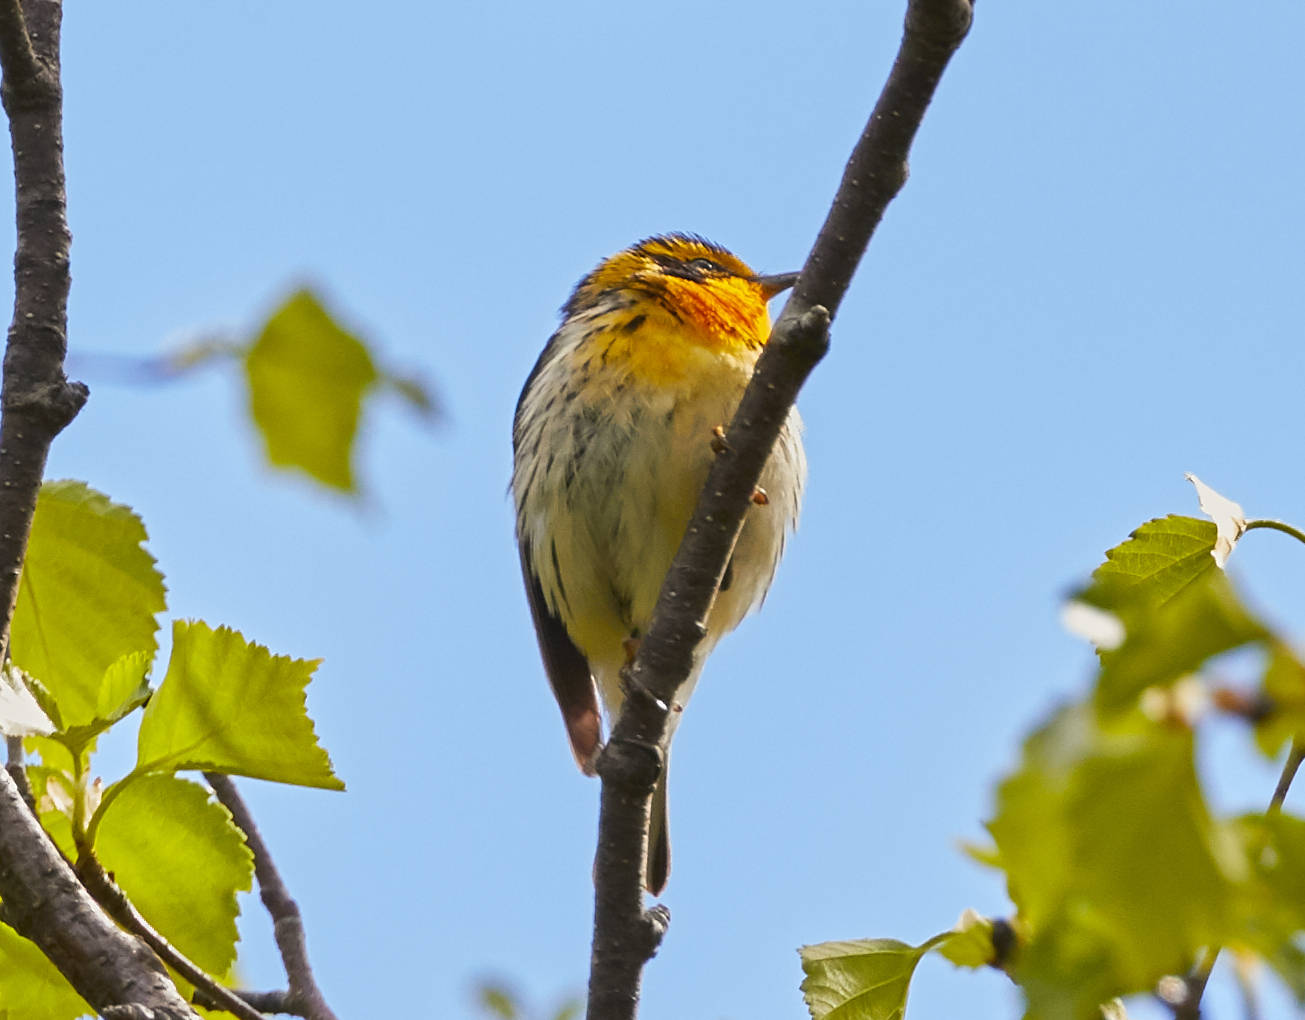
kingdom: Animalia
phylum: Chordata
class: Aves
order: Passeriformes
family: Parulidae
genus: Setophaga
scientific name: Setophaga fusca
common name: Blackburnian warbler
